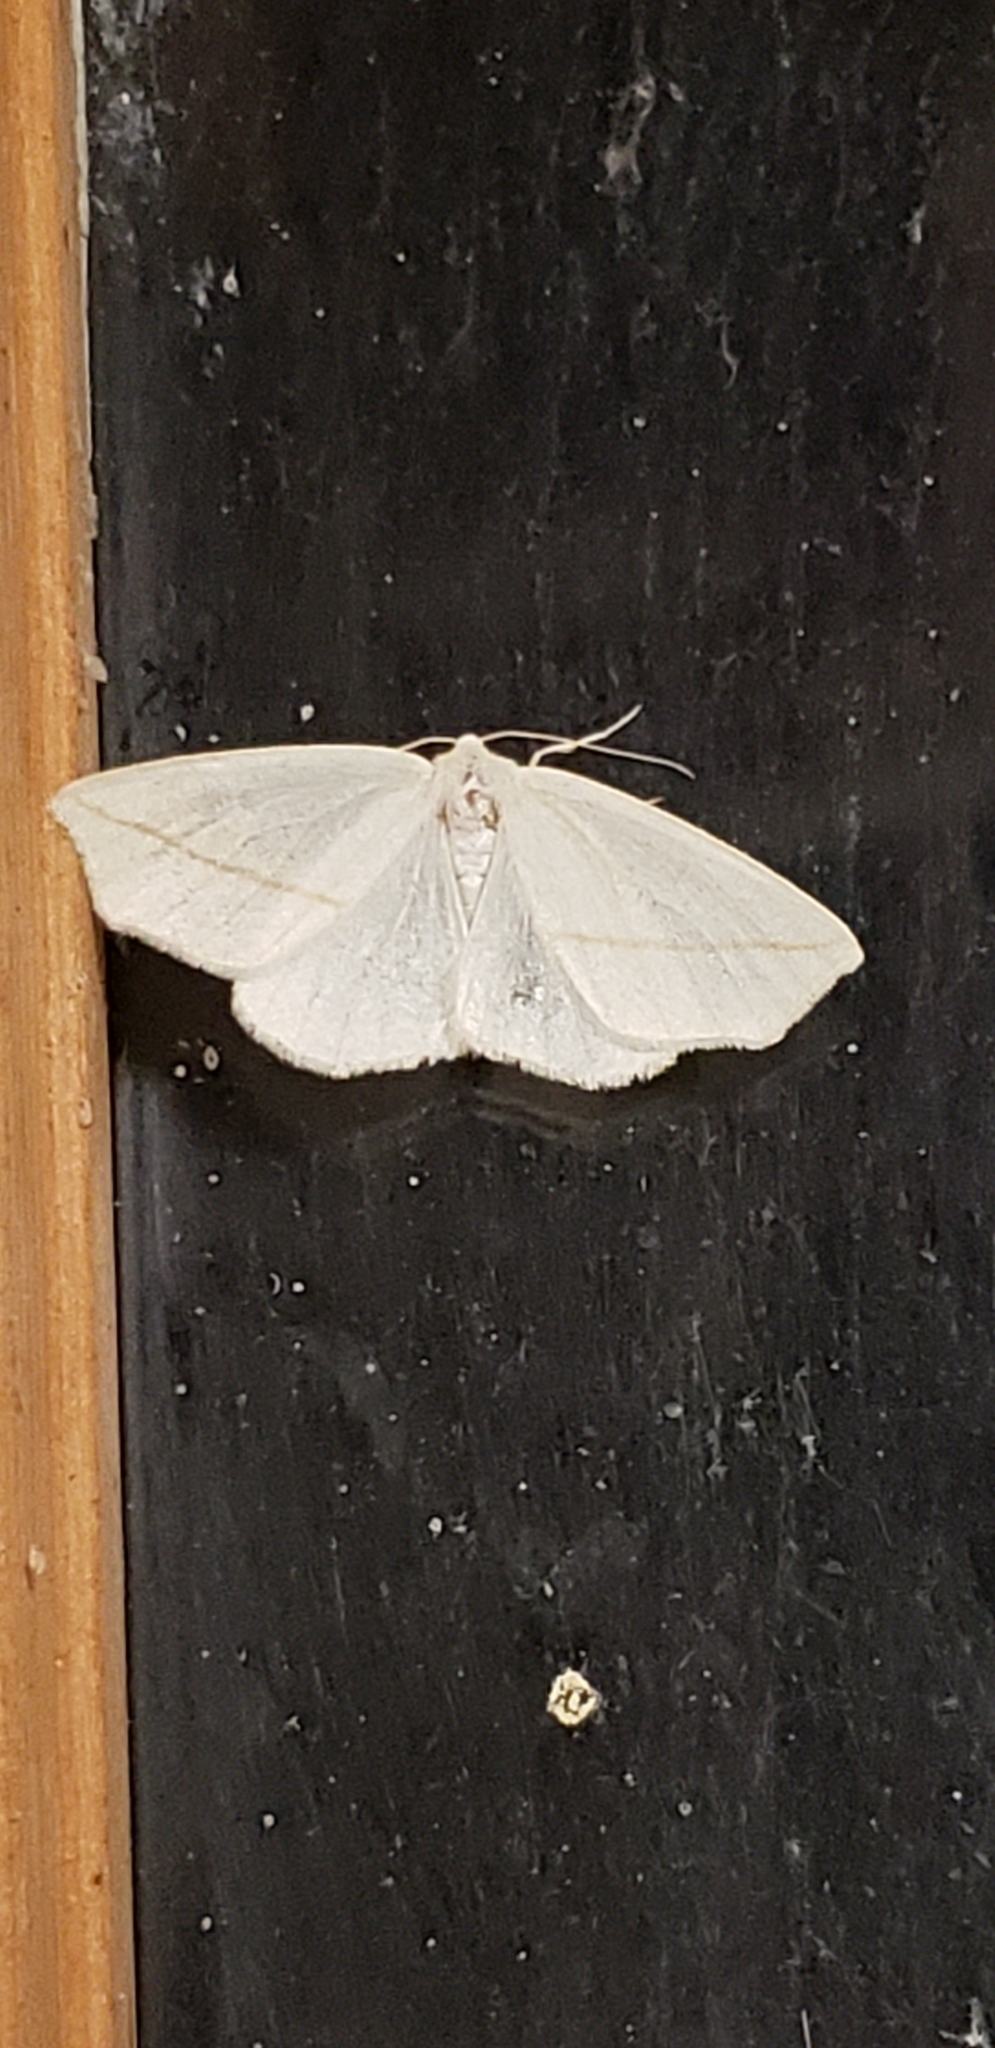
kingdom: Animalia
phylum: Arthropoda
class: Insecta
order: Lepidoptera
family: Geometridae
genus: Tetracis
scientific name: Tetracis cachexiata
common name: White slant-line
